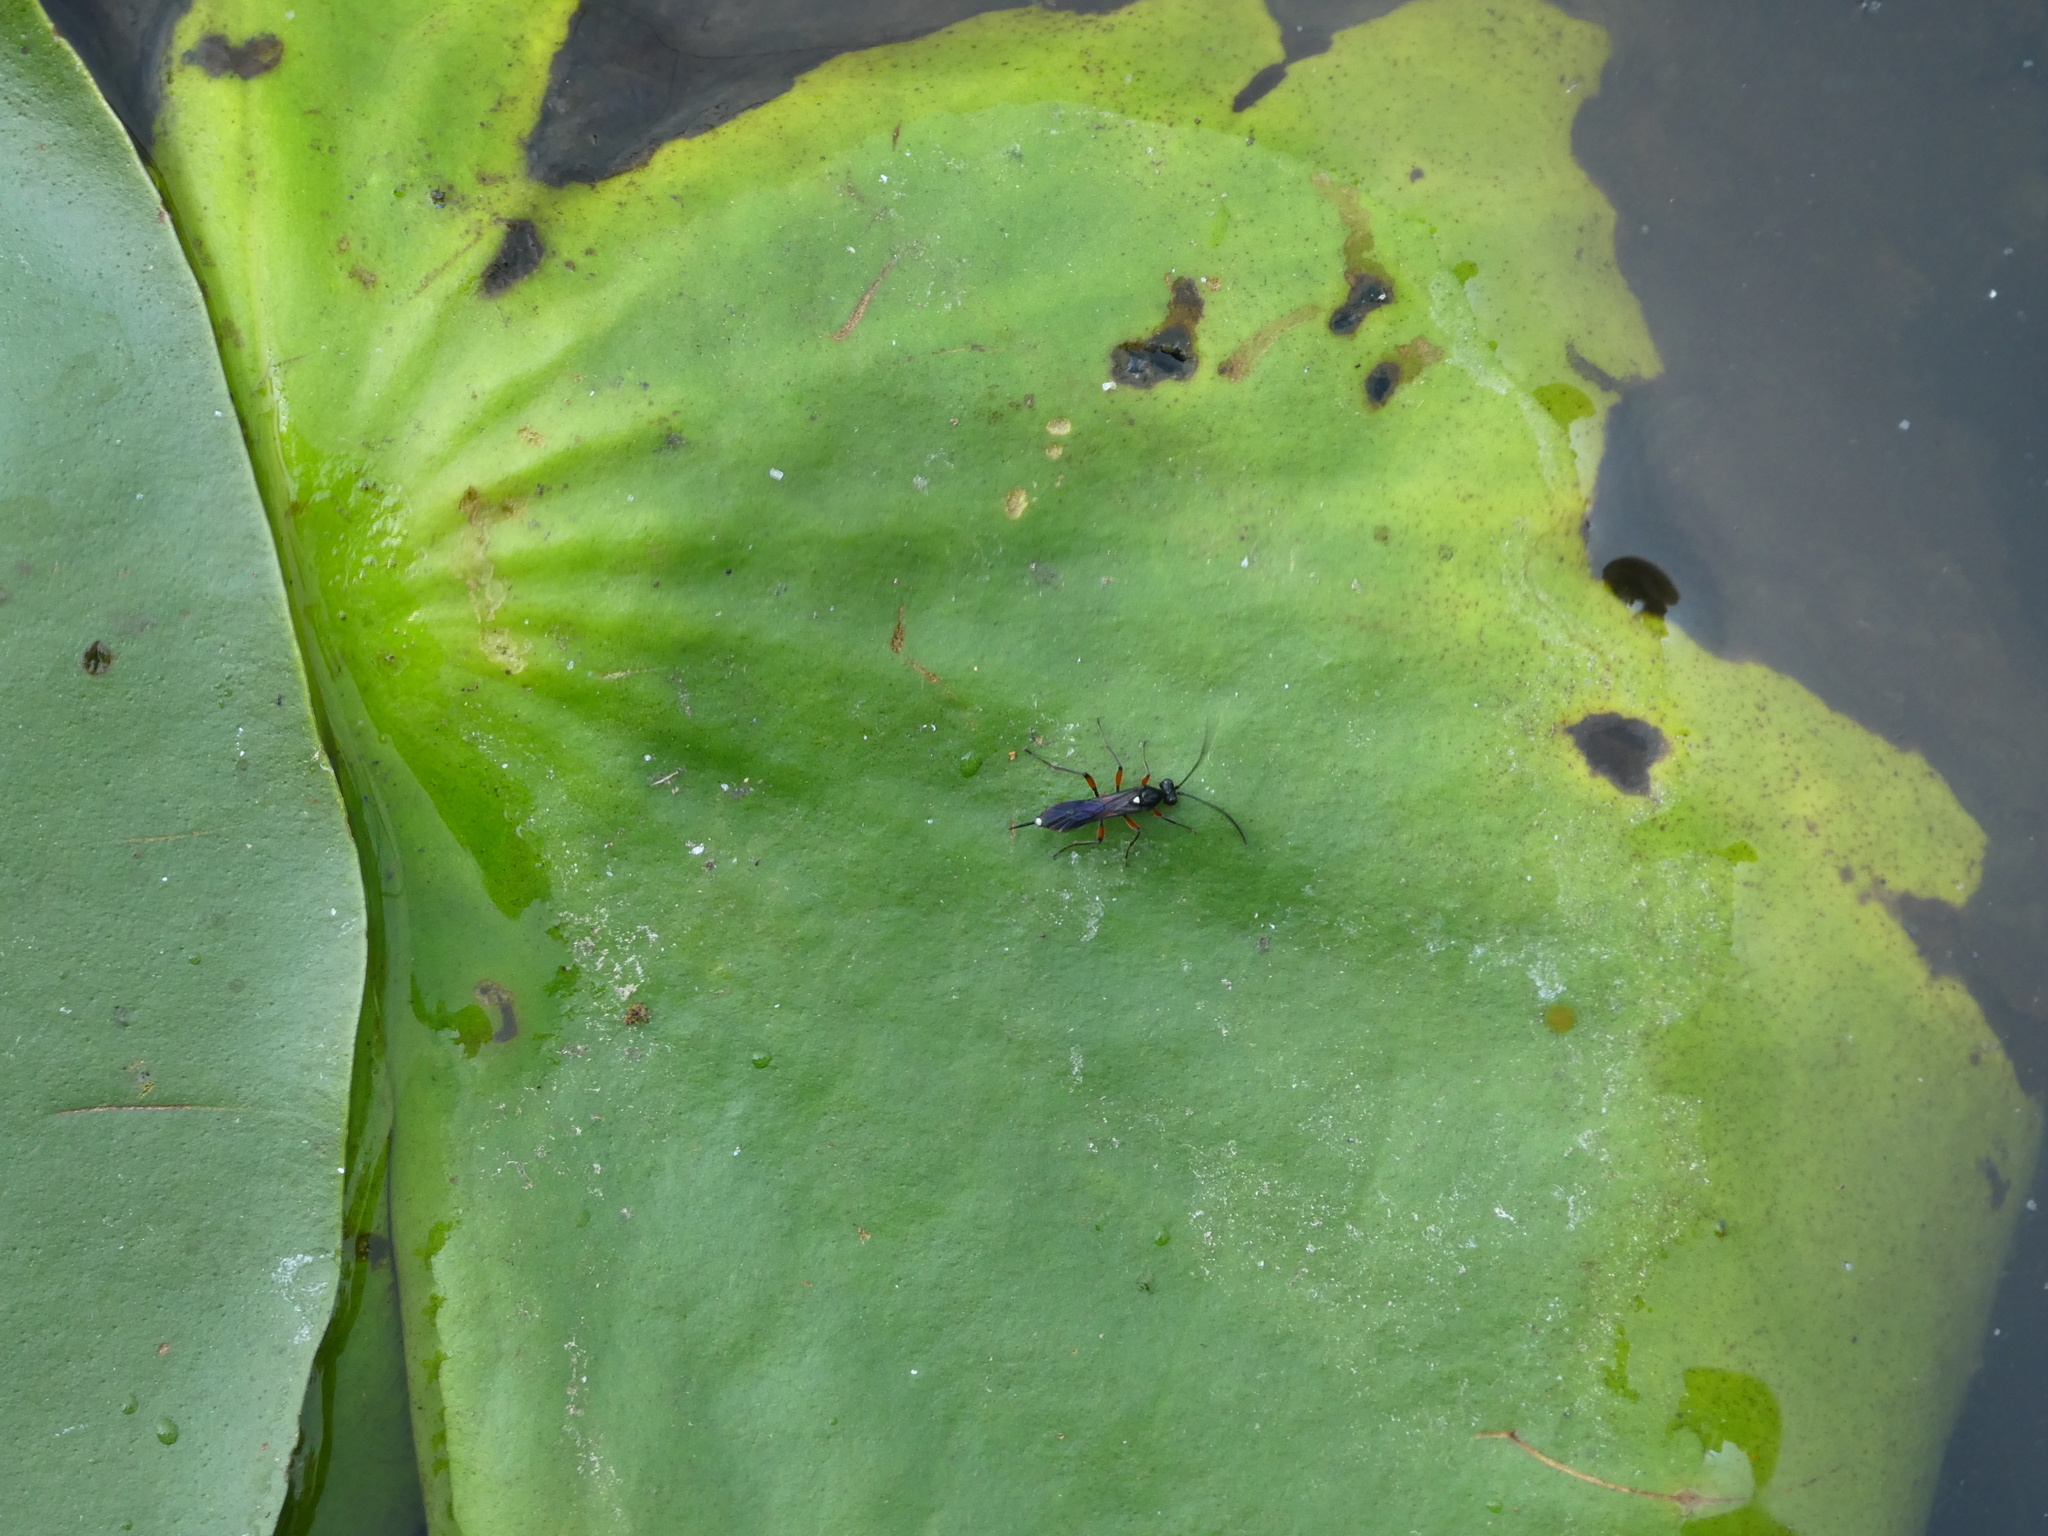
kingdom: Animalia
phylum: Arthropoda
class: Insecta
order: Hymenoptera
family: Ichneumonidae
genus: Apsilops
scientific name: Apsilops hirtifrons
